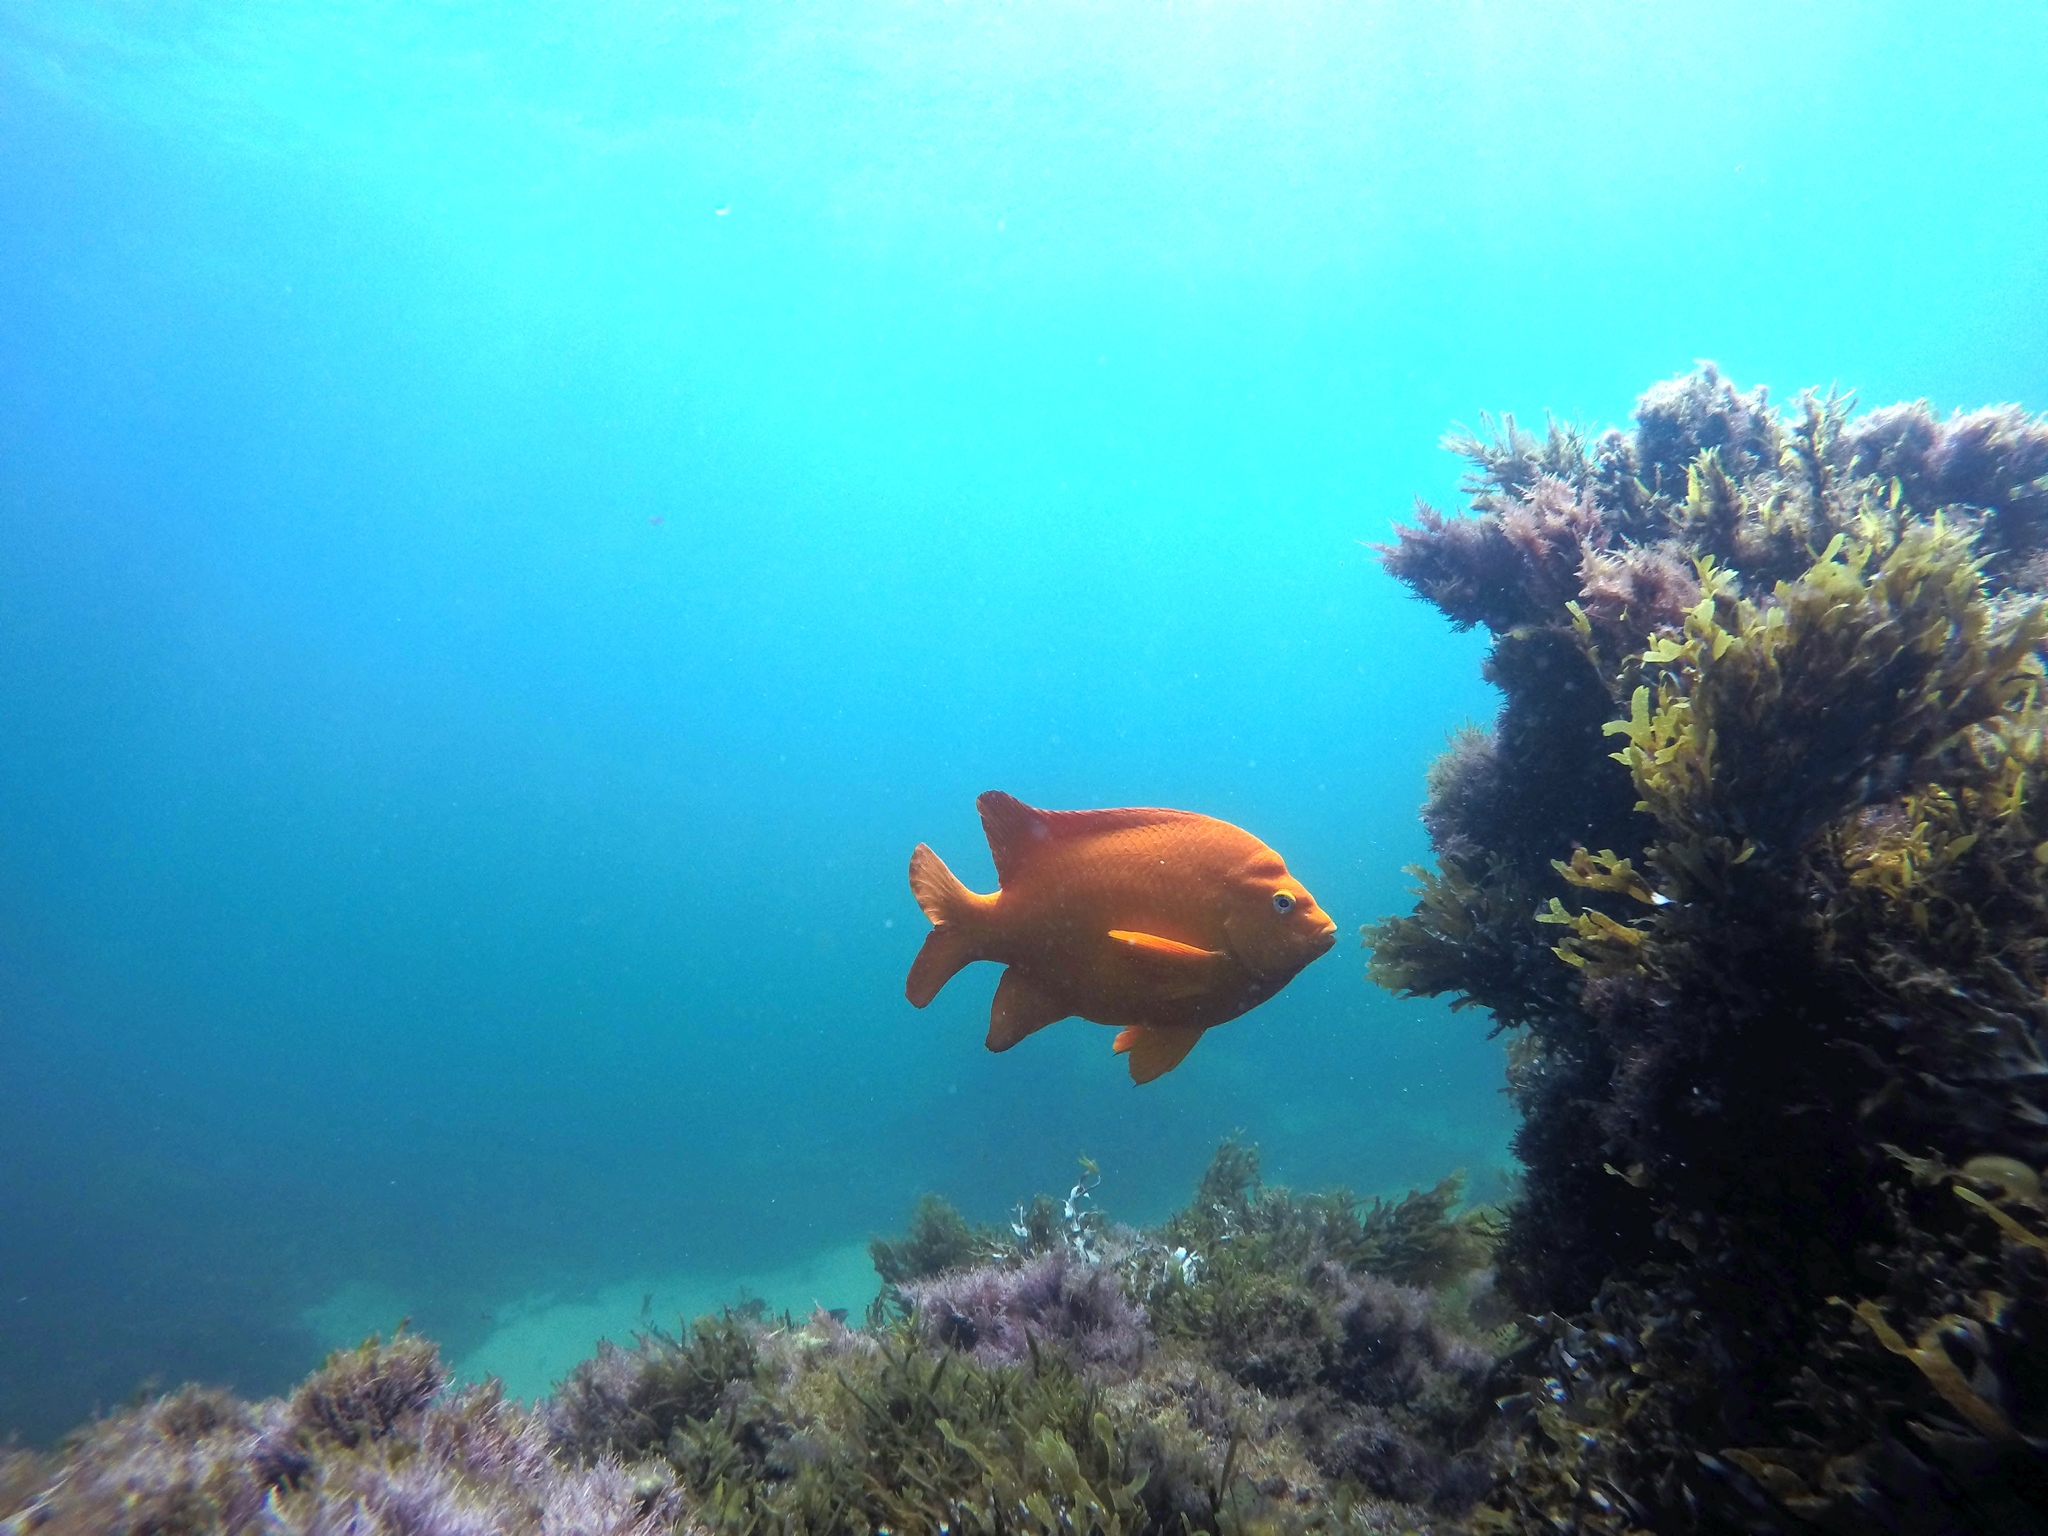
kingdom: Animalia
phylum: Chordata
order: Perciformes
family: Pomacentridae
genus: Hypsypops
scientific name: Hypsypops rubicundus
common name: Garibaldi
